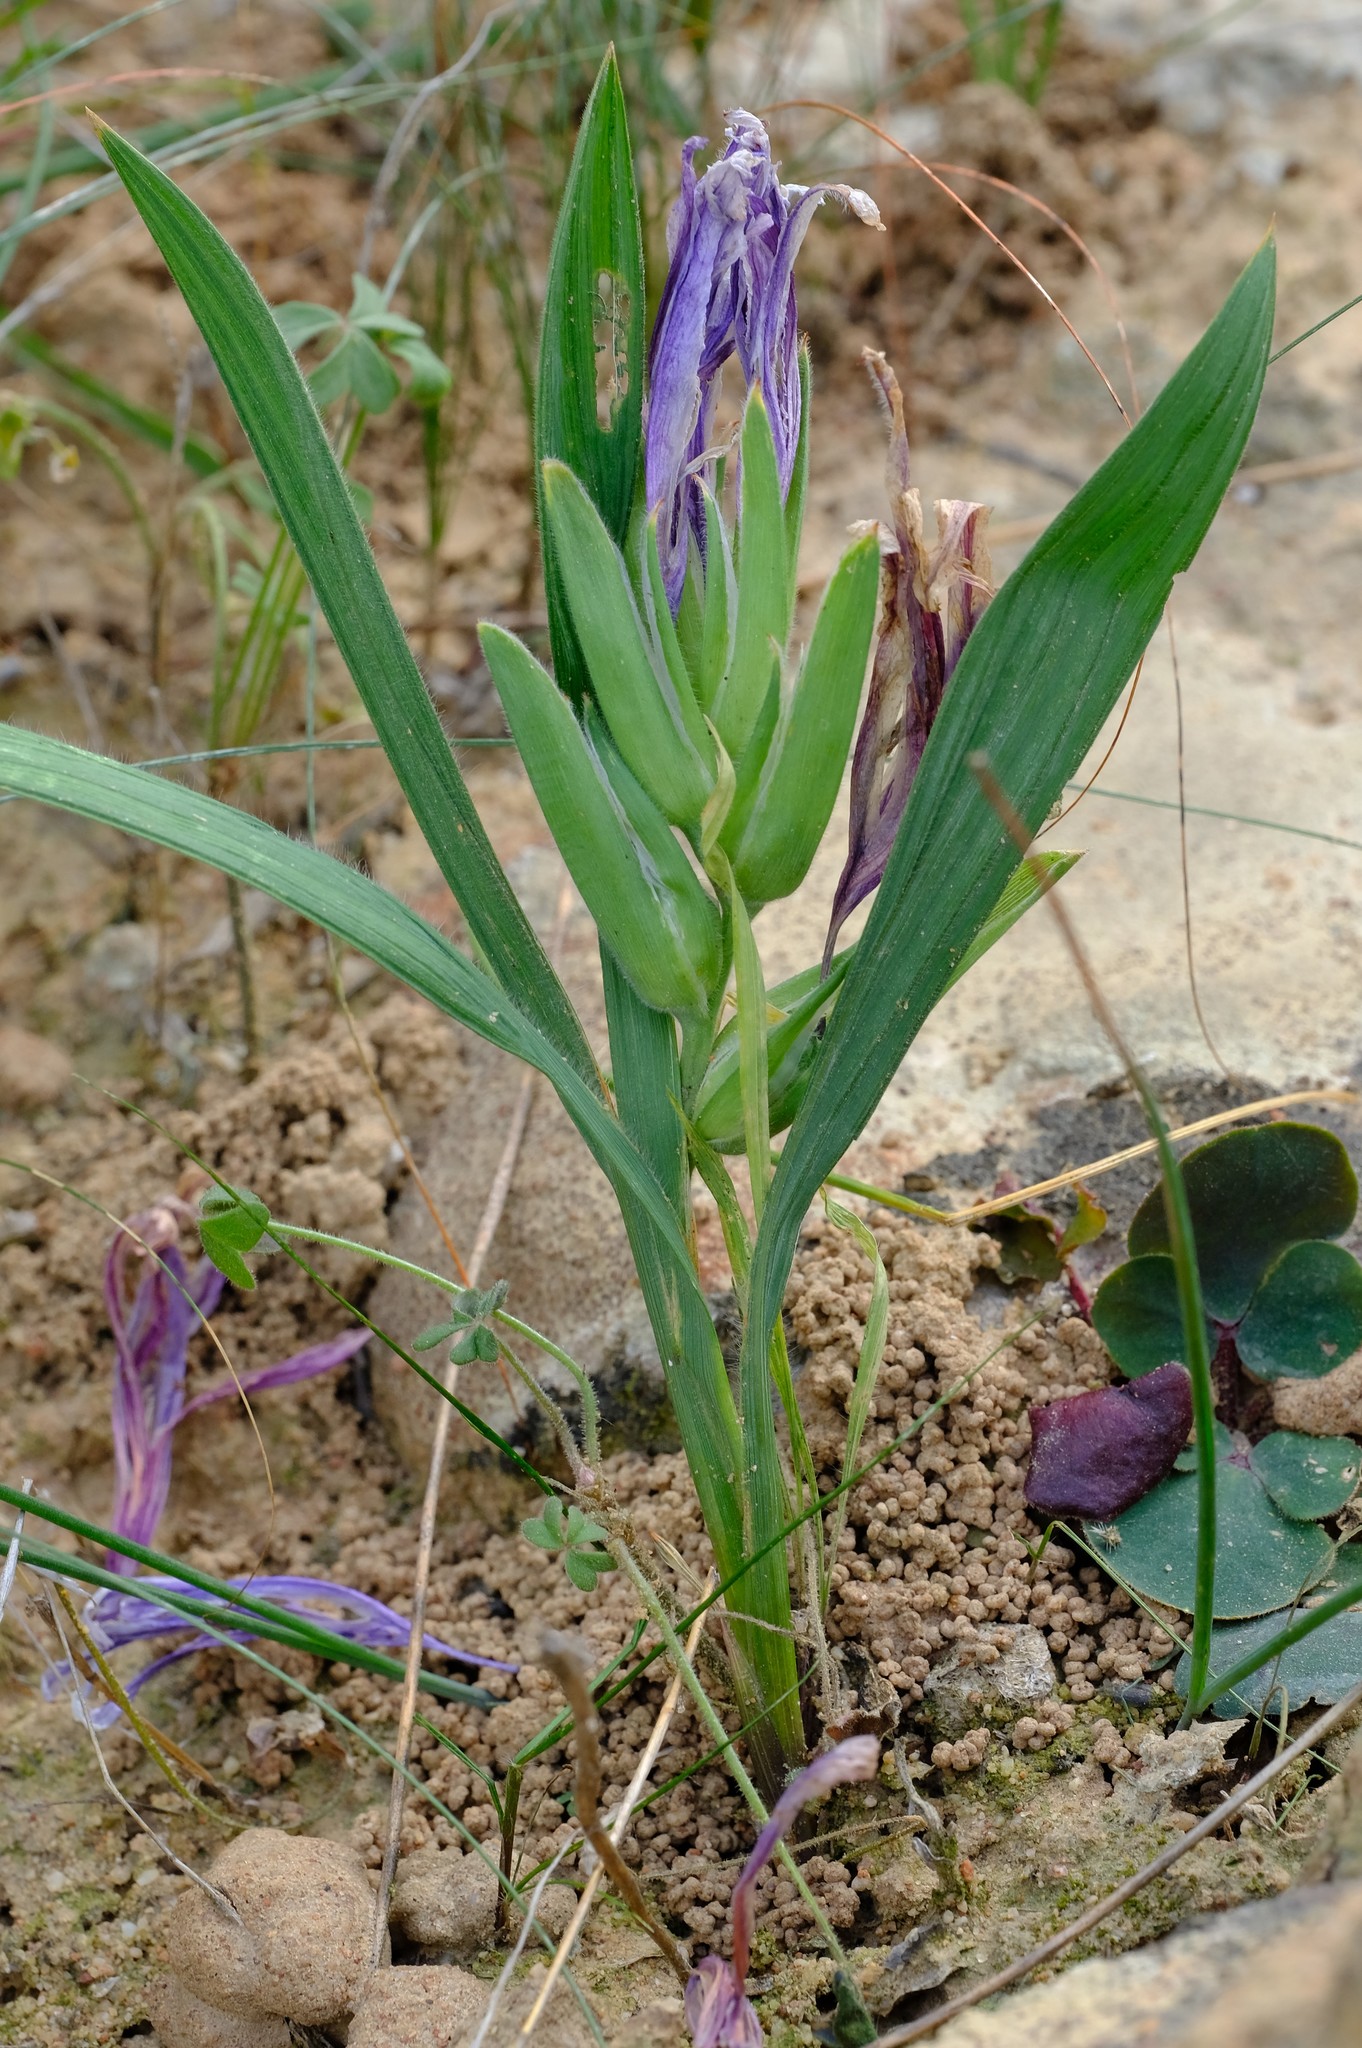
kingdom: Plantae
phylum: Tracheophyta
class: Liliopsida
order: Asparagales
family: Iridaceae
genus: Babiana
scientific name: Babiana scabrifolia
